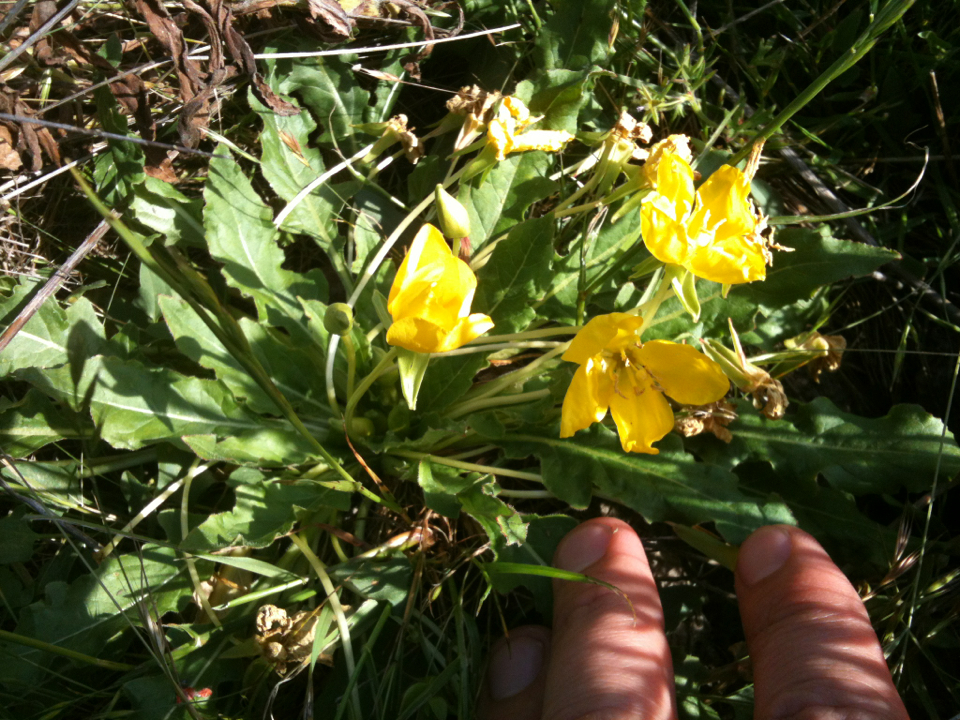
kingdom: Plantae
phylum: Tracheophyta
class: Magnoliopsida
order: Myrtales
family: Onagraceae
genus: Taraxia
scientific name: Taraxia ovata
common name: Goldeneggs
